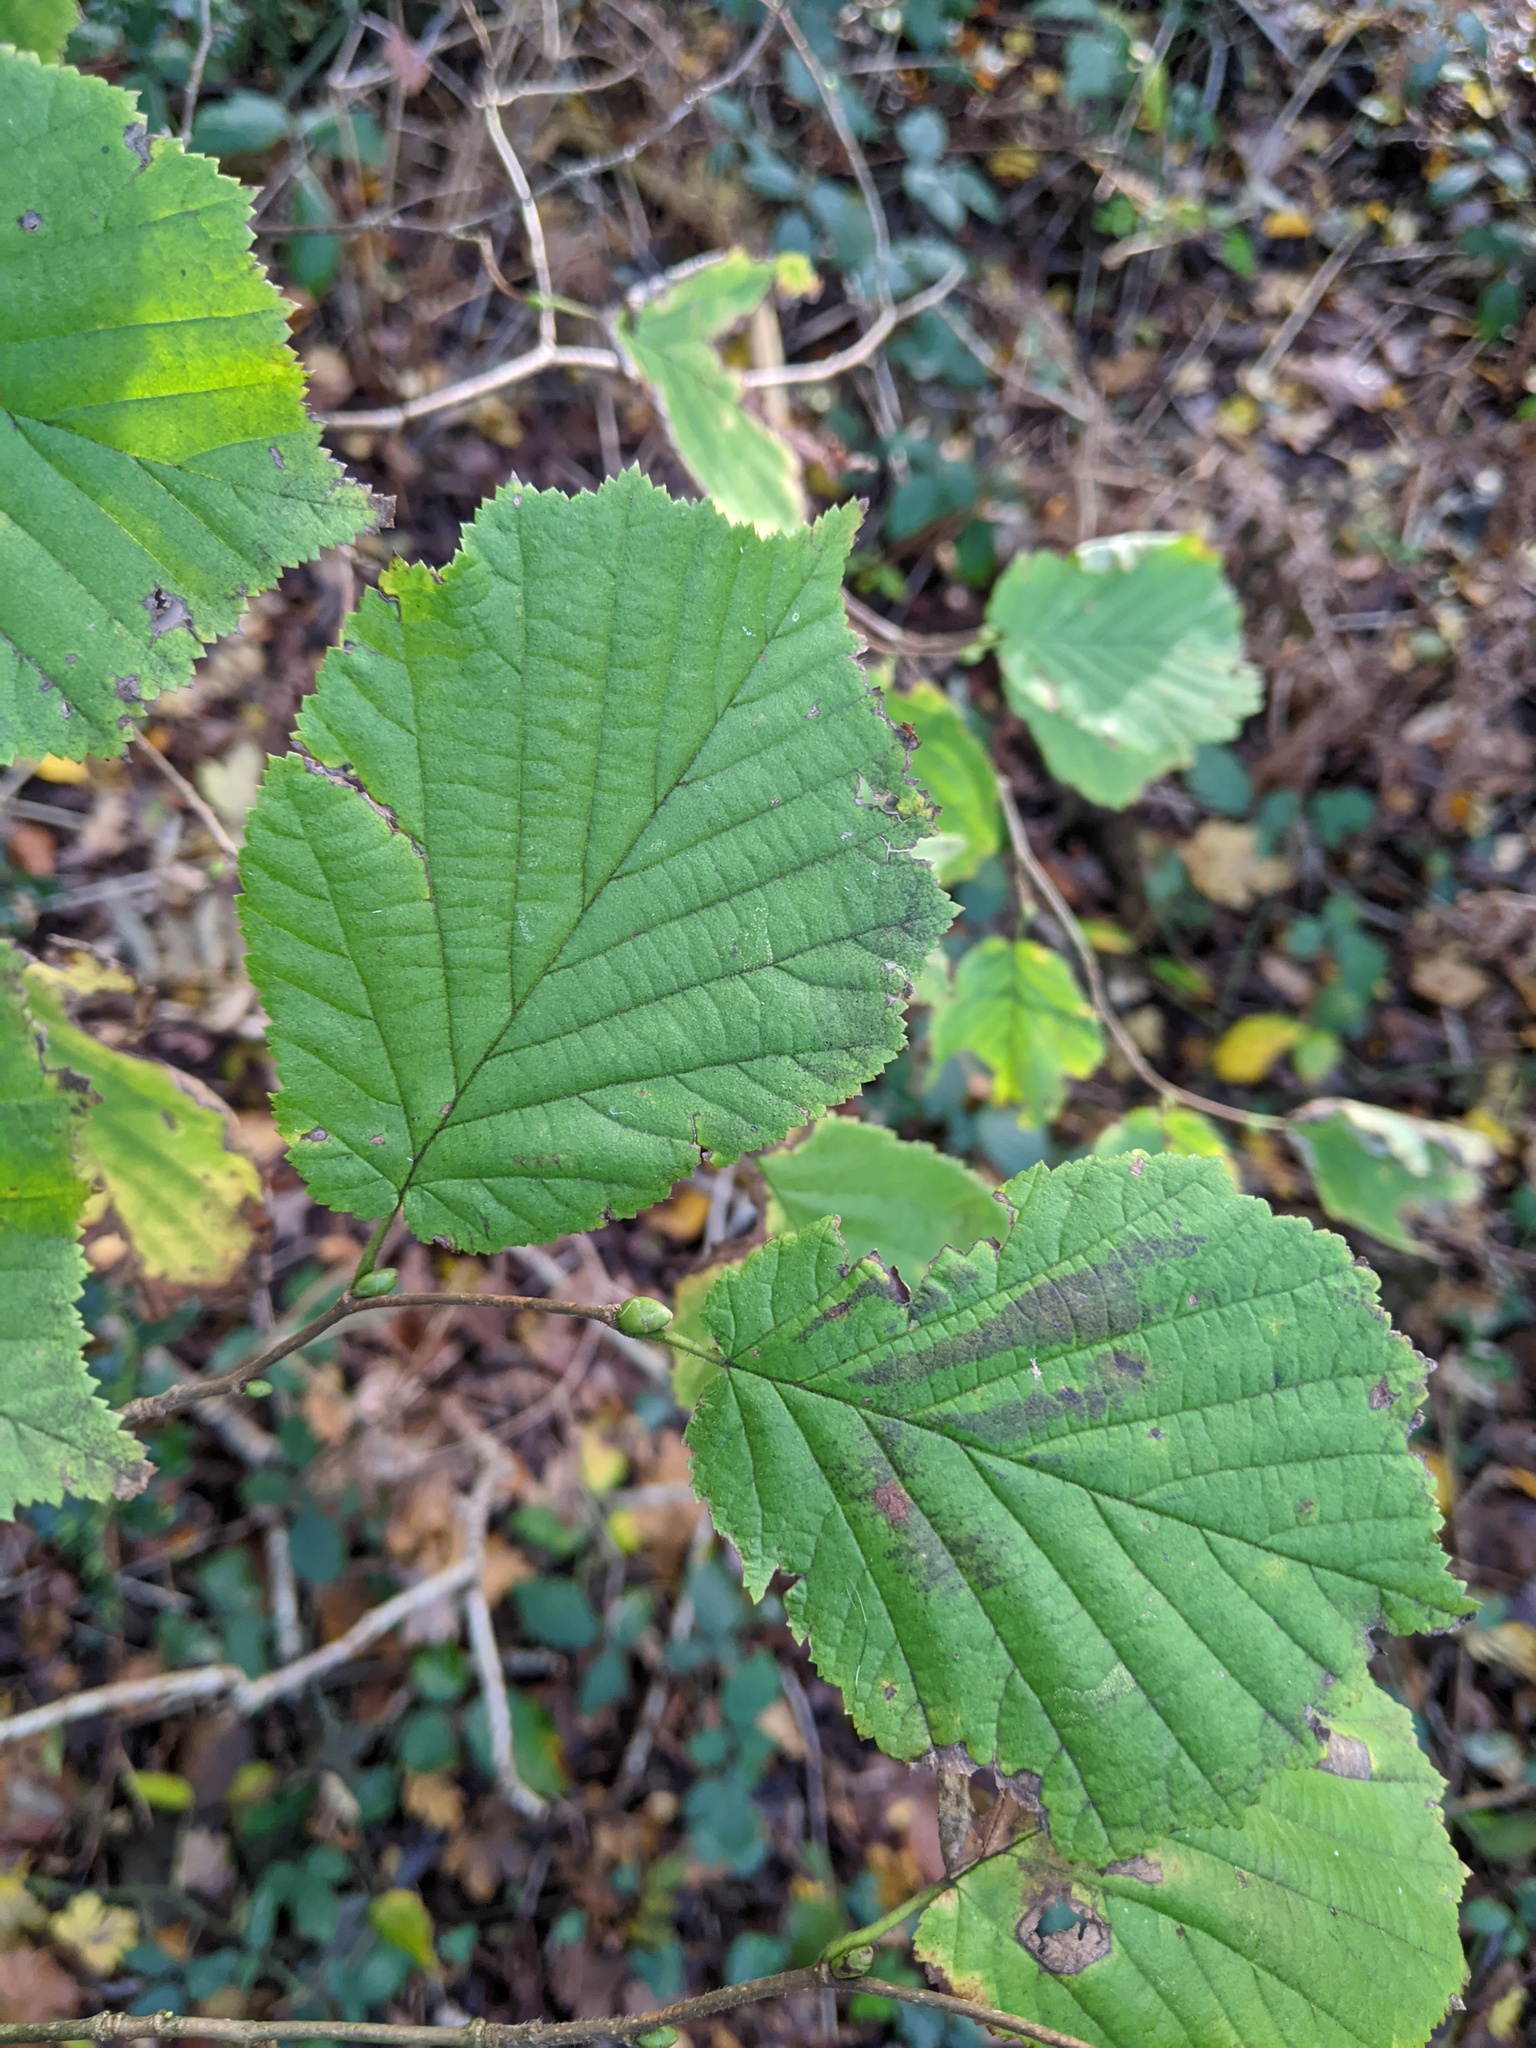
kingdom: Plantae
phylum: Tracheophyta
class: Magnoliopsida
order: Fagales
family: Betulaceae
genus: Corylus
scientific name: Corylus avellana
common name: European hazel
